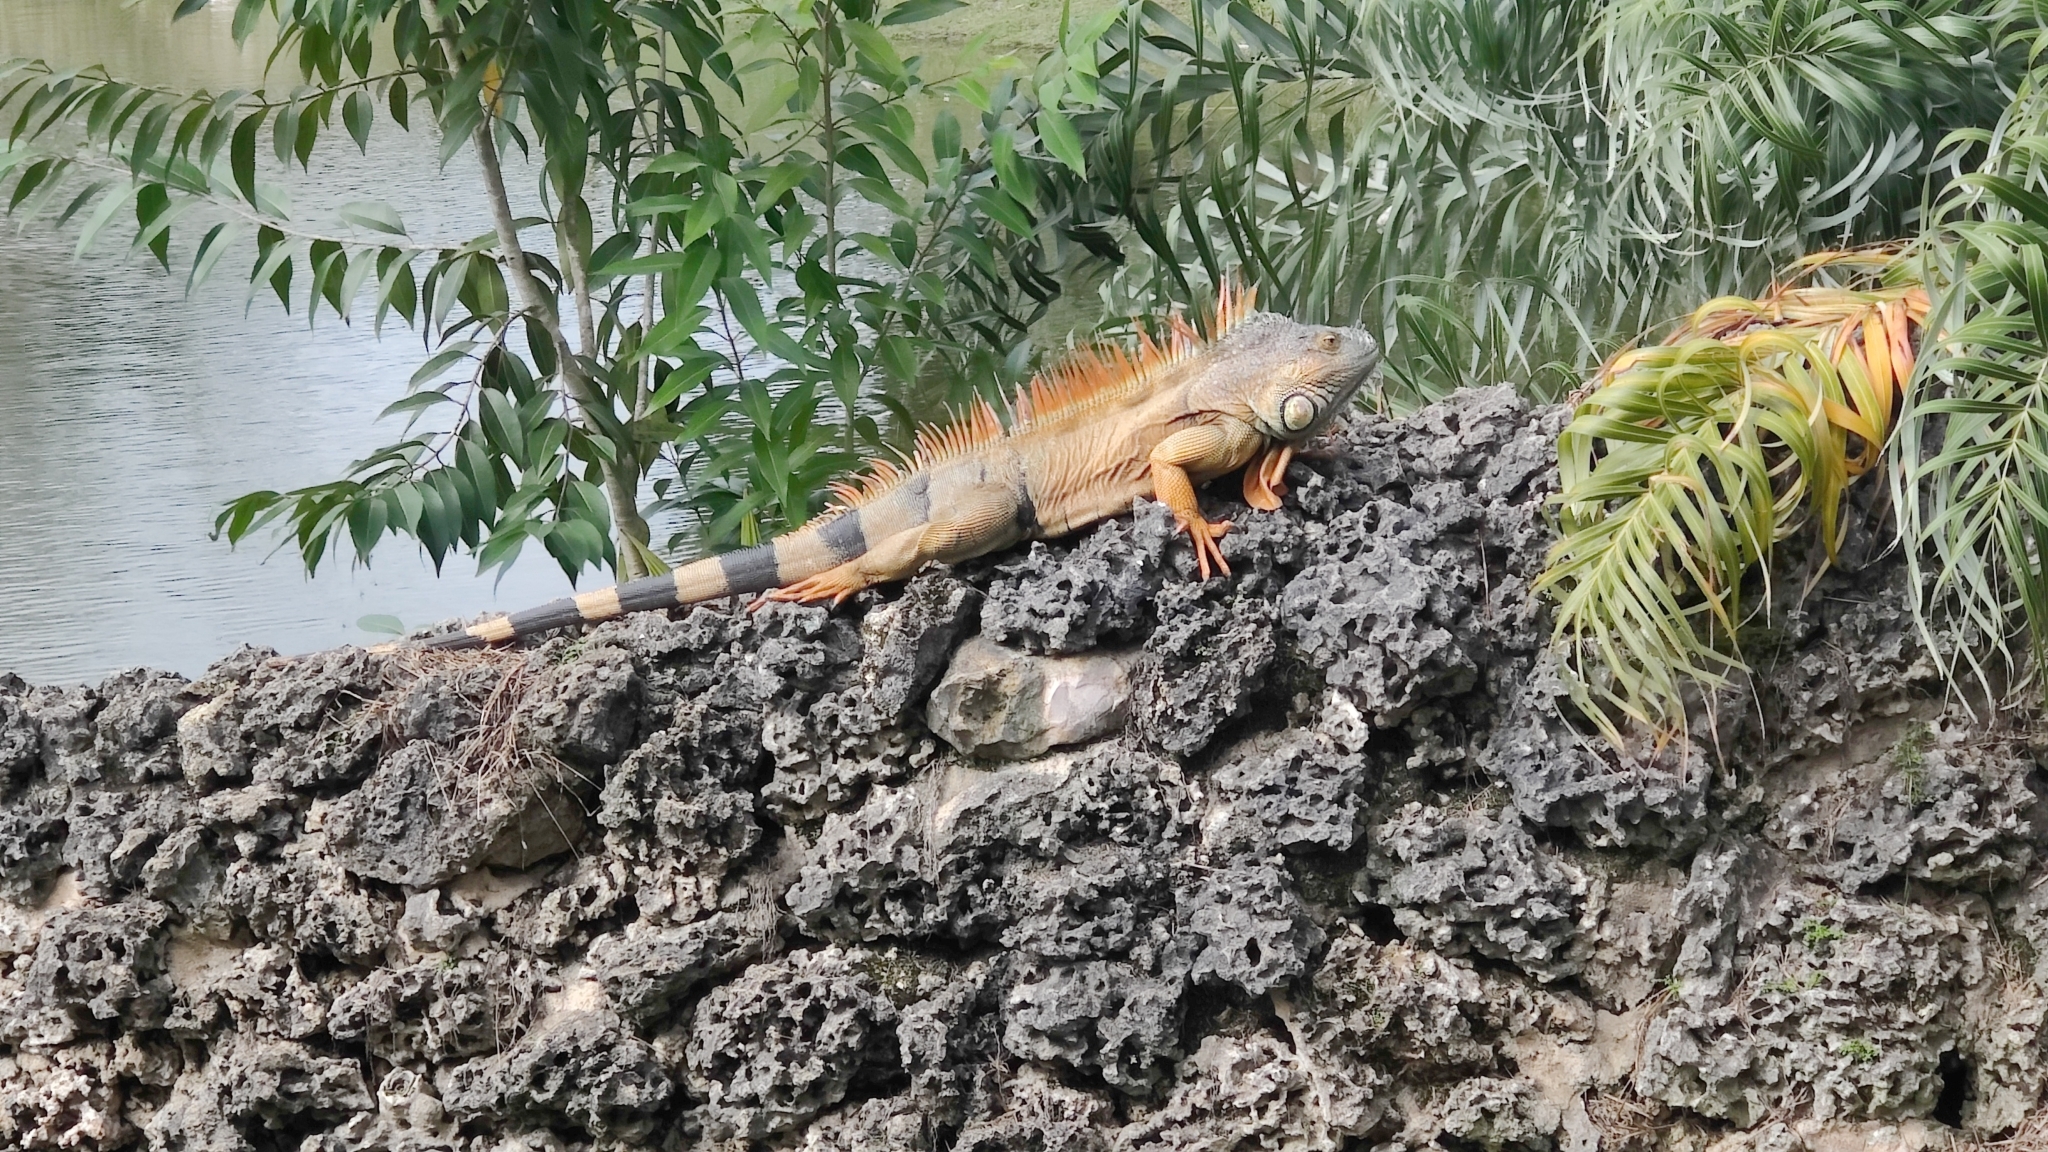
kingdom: Animalia
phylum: Chordata
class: Squamata
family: Iguanidae
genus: Iguana
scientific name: Iguana iguana
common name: Green iguana
